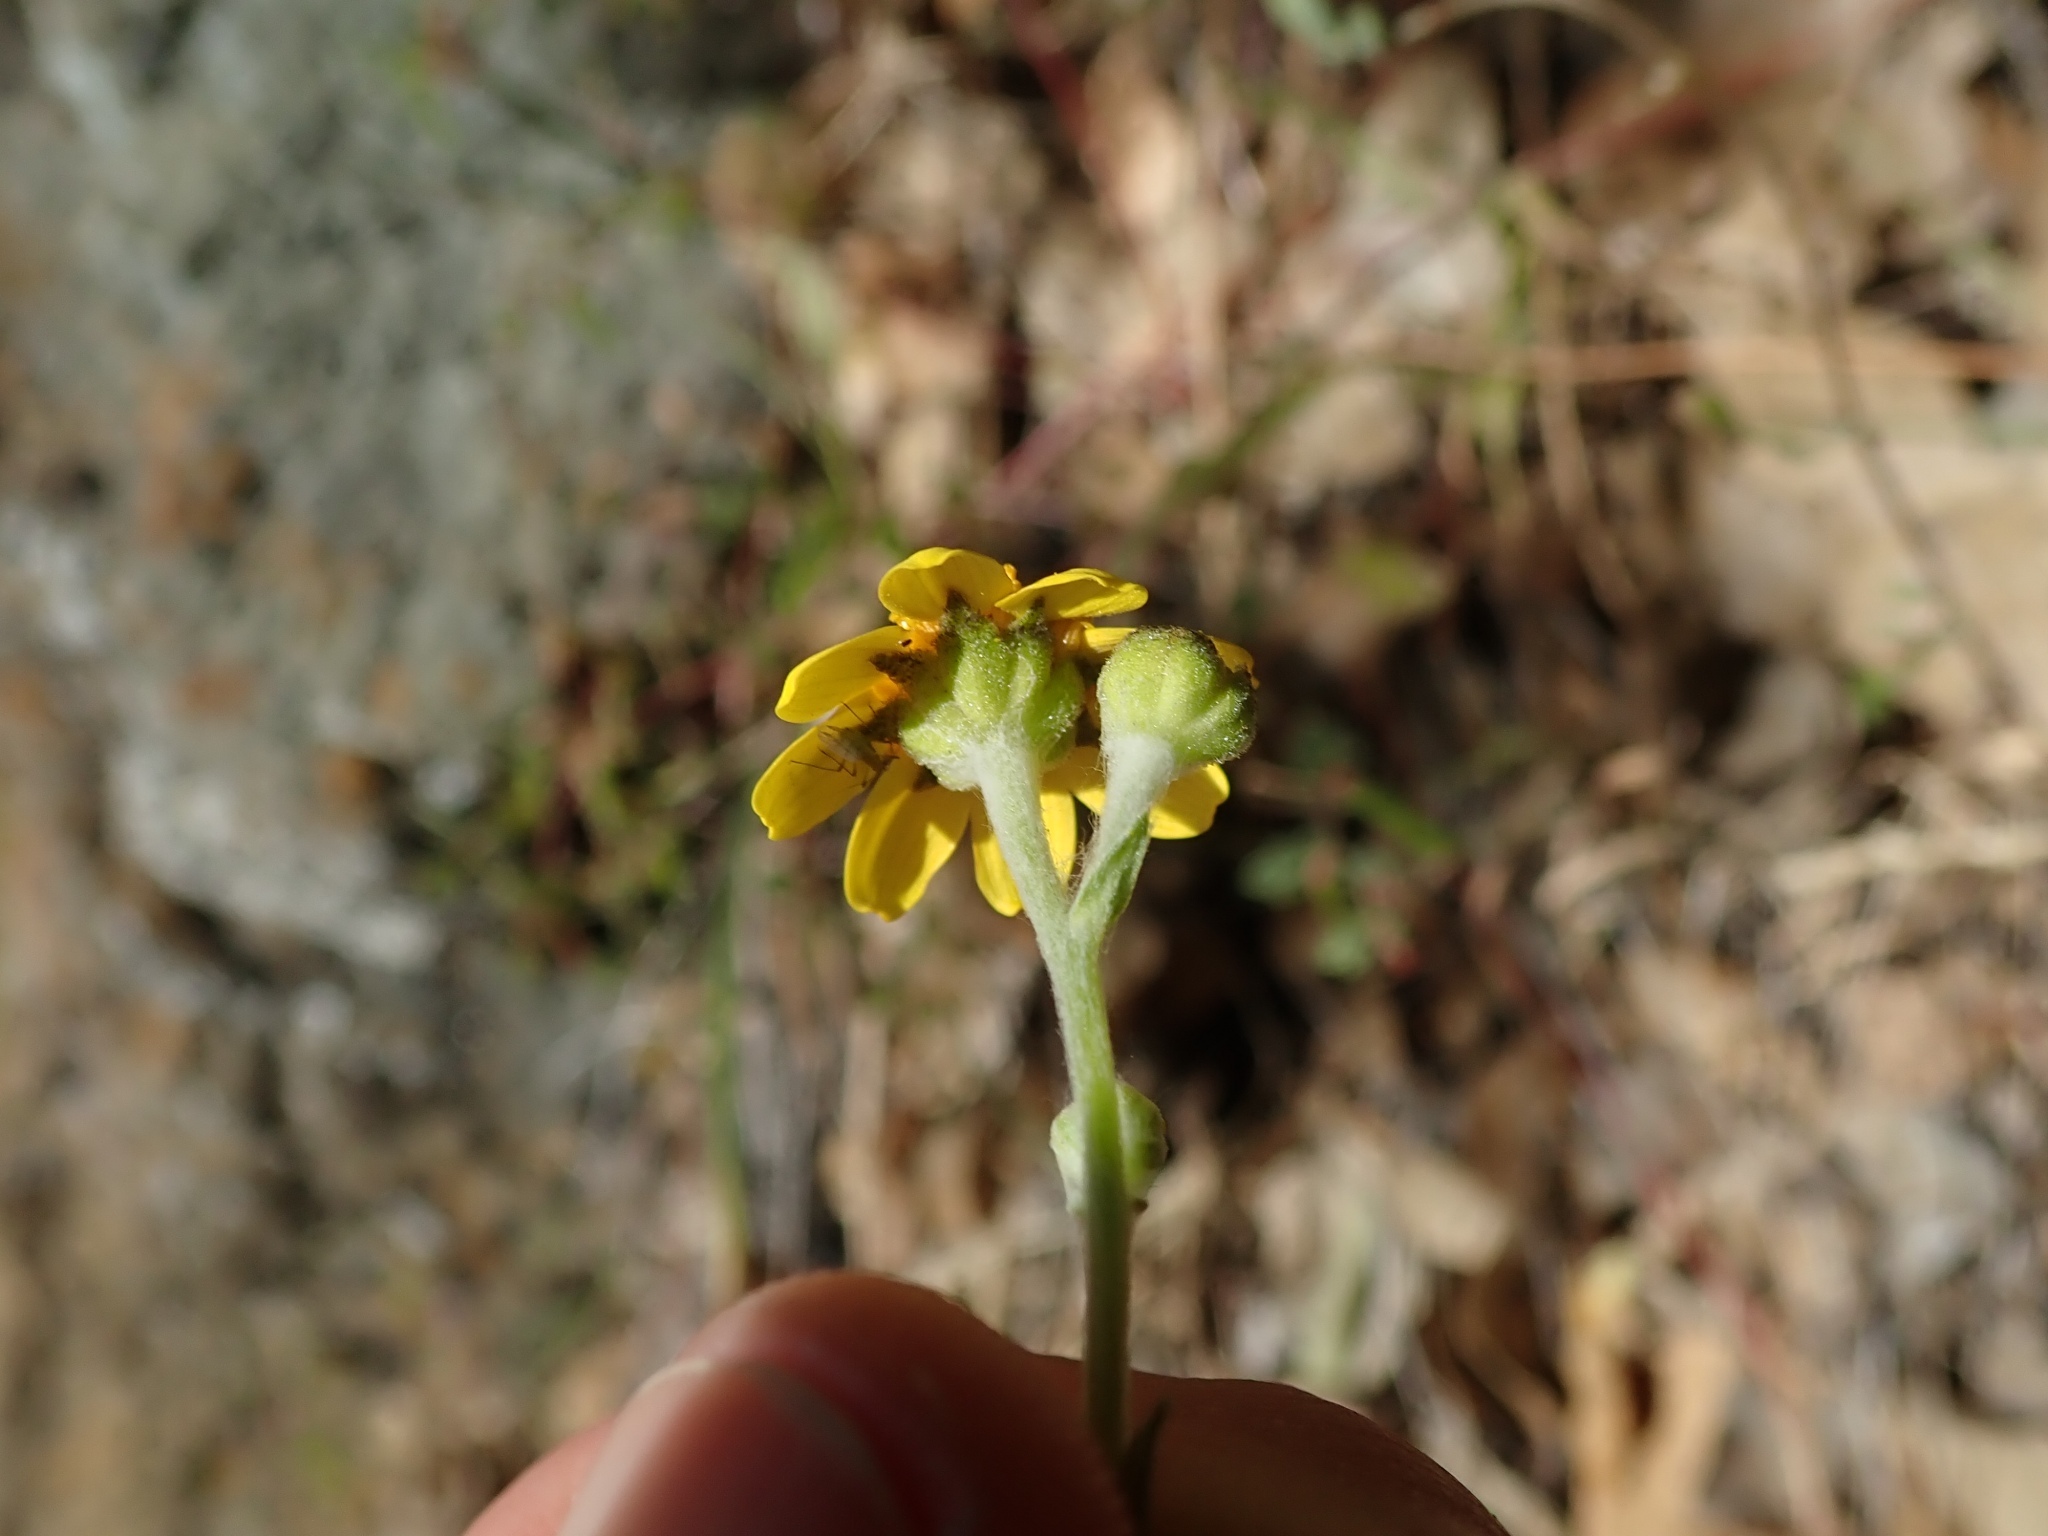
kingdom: Plantae
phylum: Tracheophyta
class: Magnoliopsida
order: Asterales
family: Asteraceae
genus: Monolopia
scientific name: Monolopia gracilens
